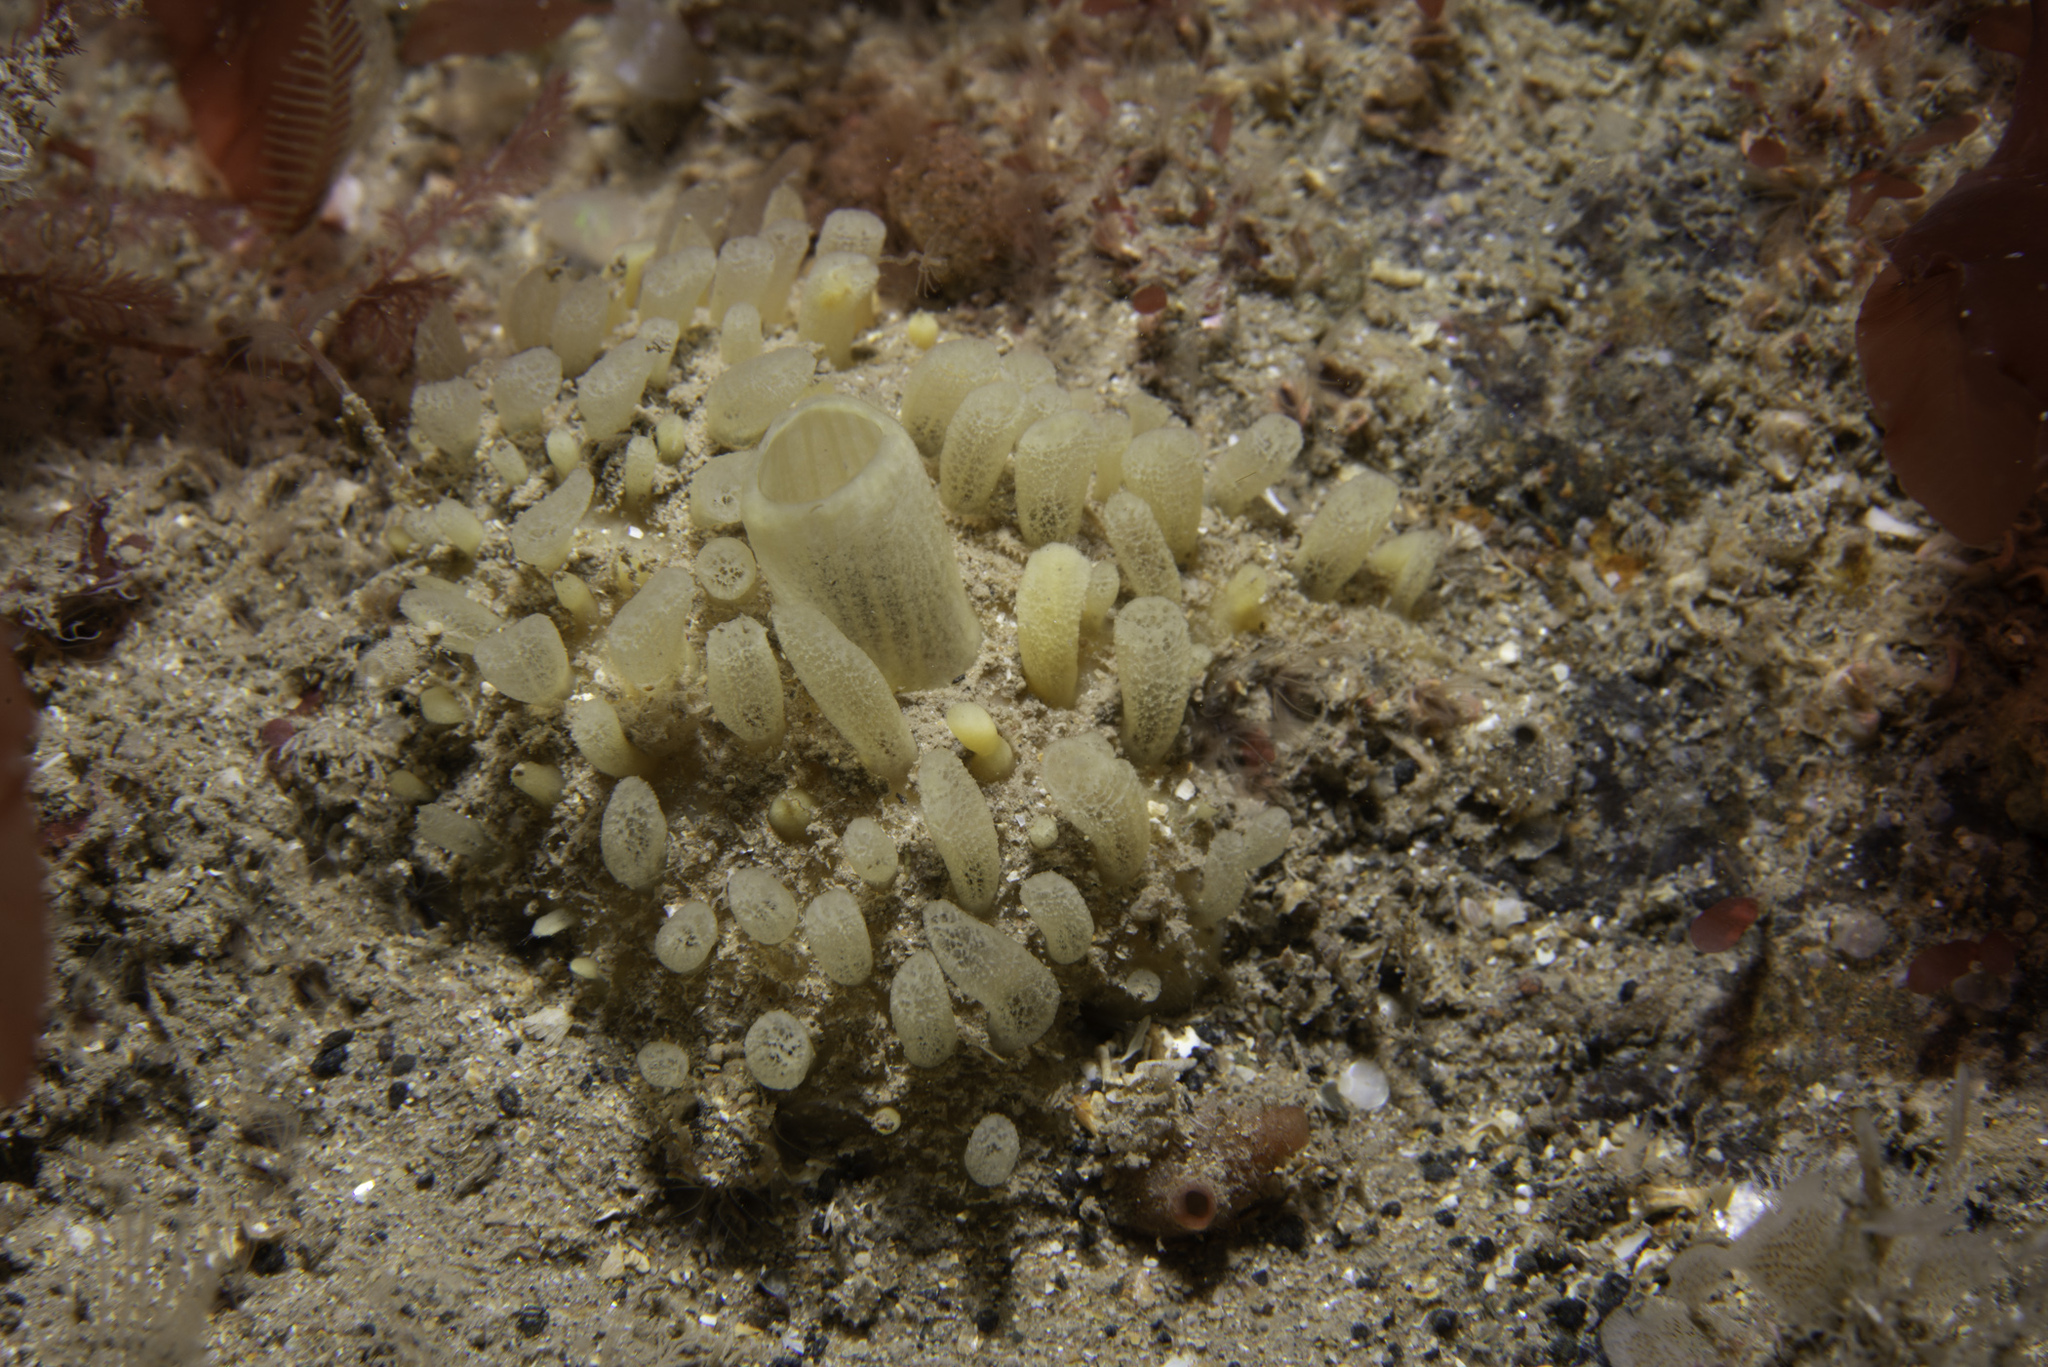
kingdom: Animalia
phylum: Porifera
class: Demospongiae
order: Polymastiida
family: Polymastiidae
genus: Polymastia
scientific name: Polymastia penicillus
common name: Chimney sponge
